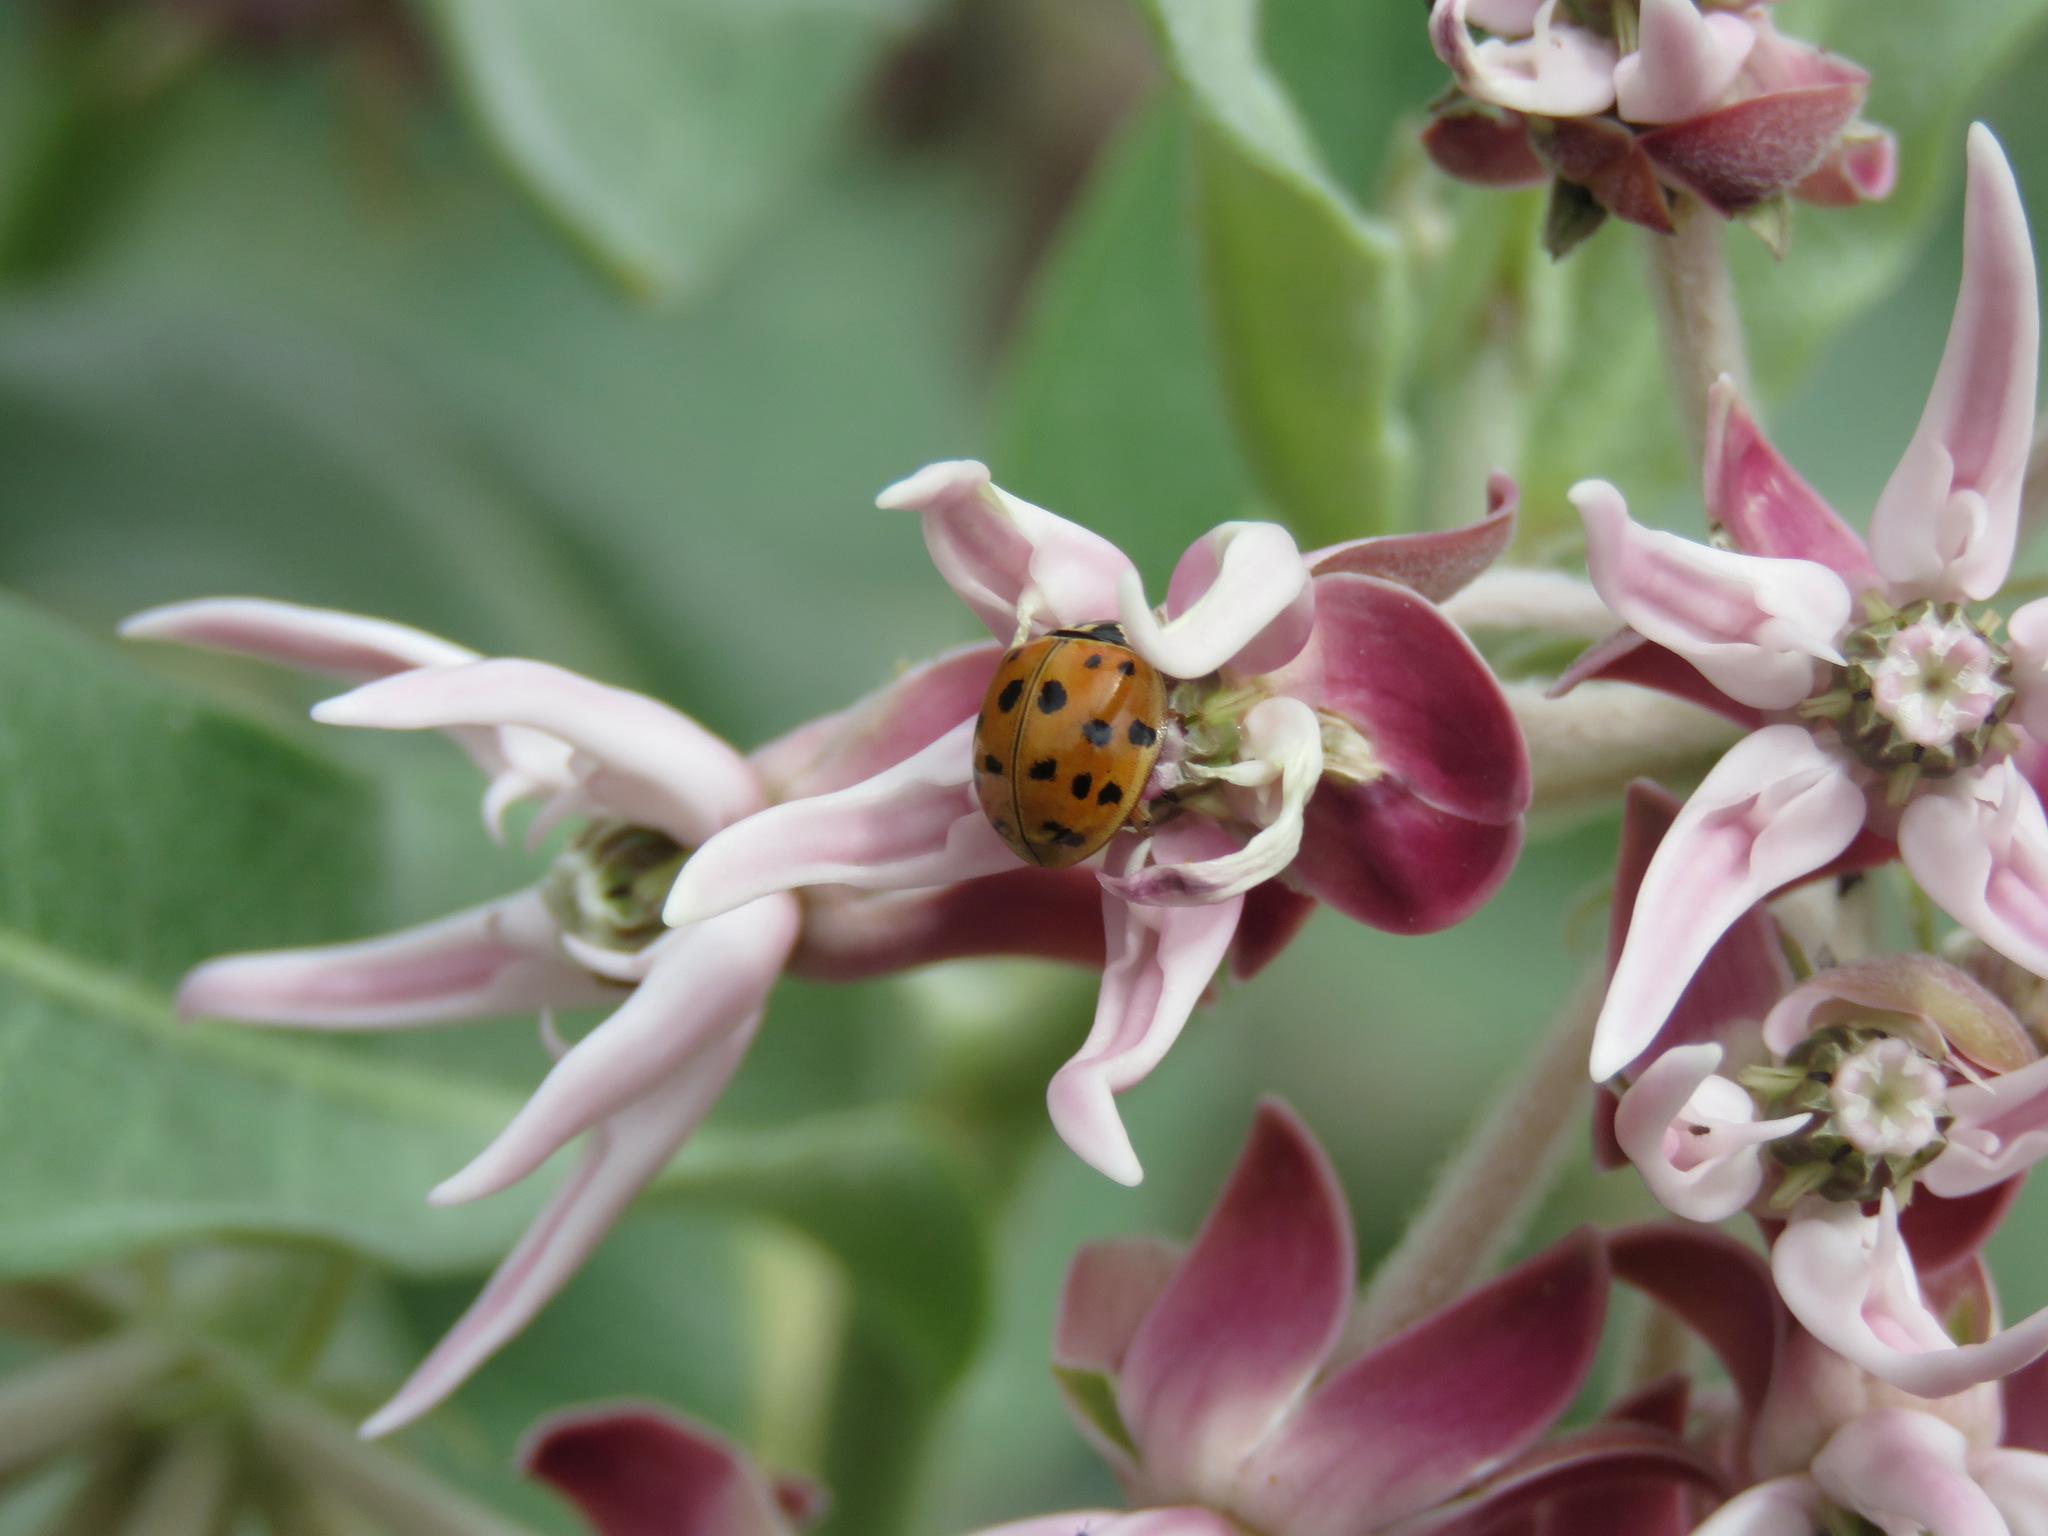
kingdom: Animalia
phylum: Arthropoda
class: Insecta
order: Coleoptera
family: Coccinellidae
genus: Harmonia
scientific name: Harmonia axyridis
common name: Harlequin ladybird
